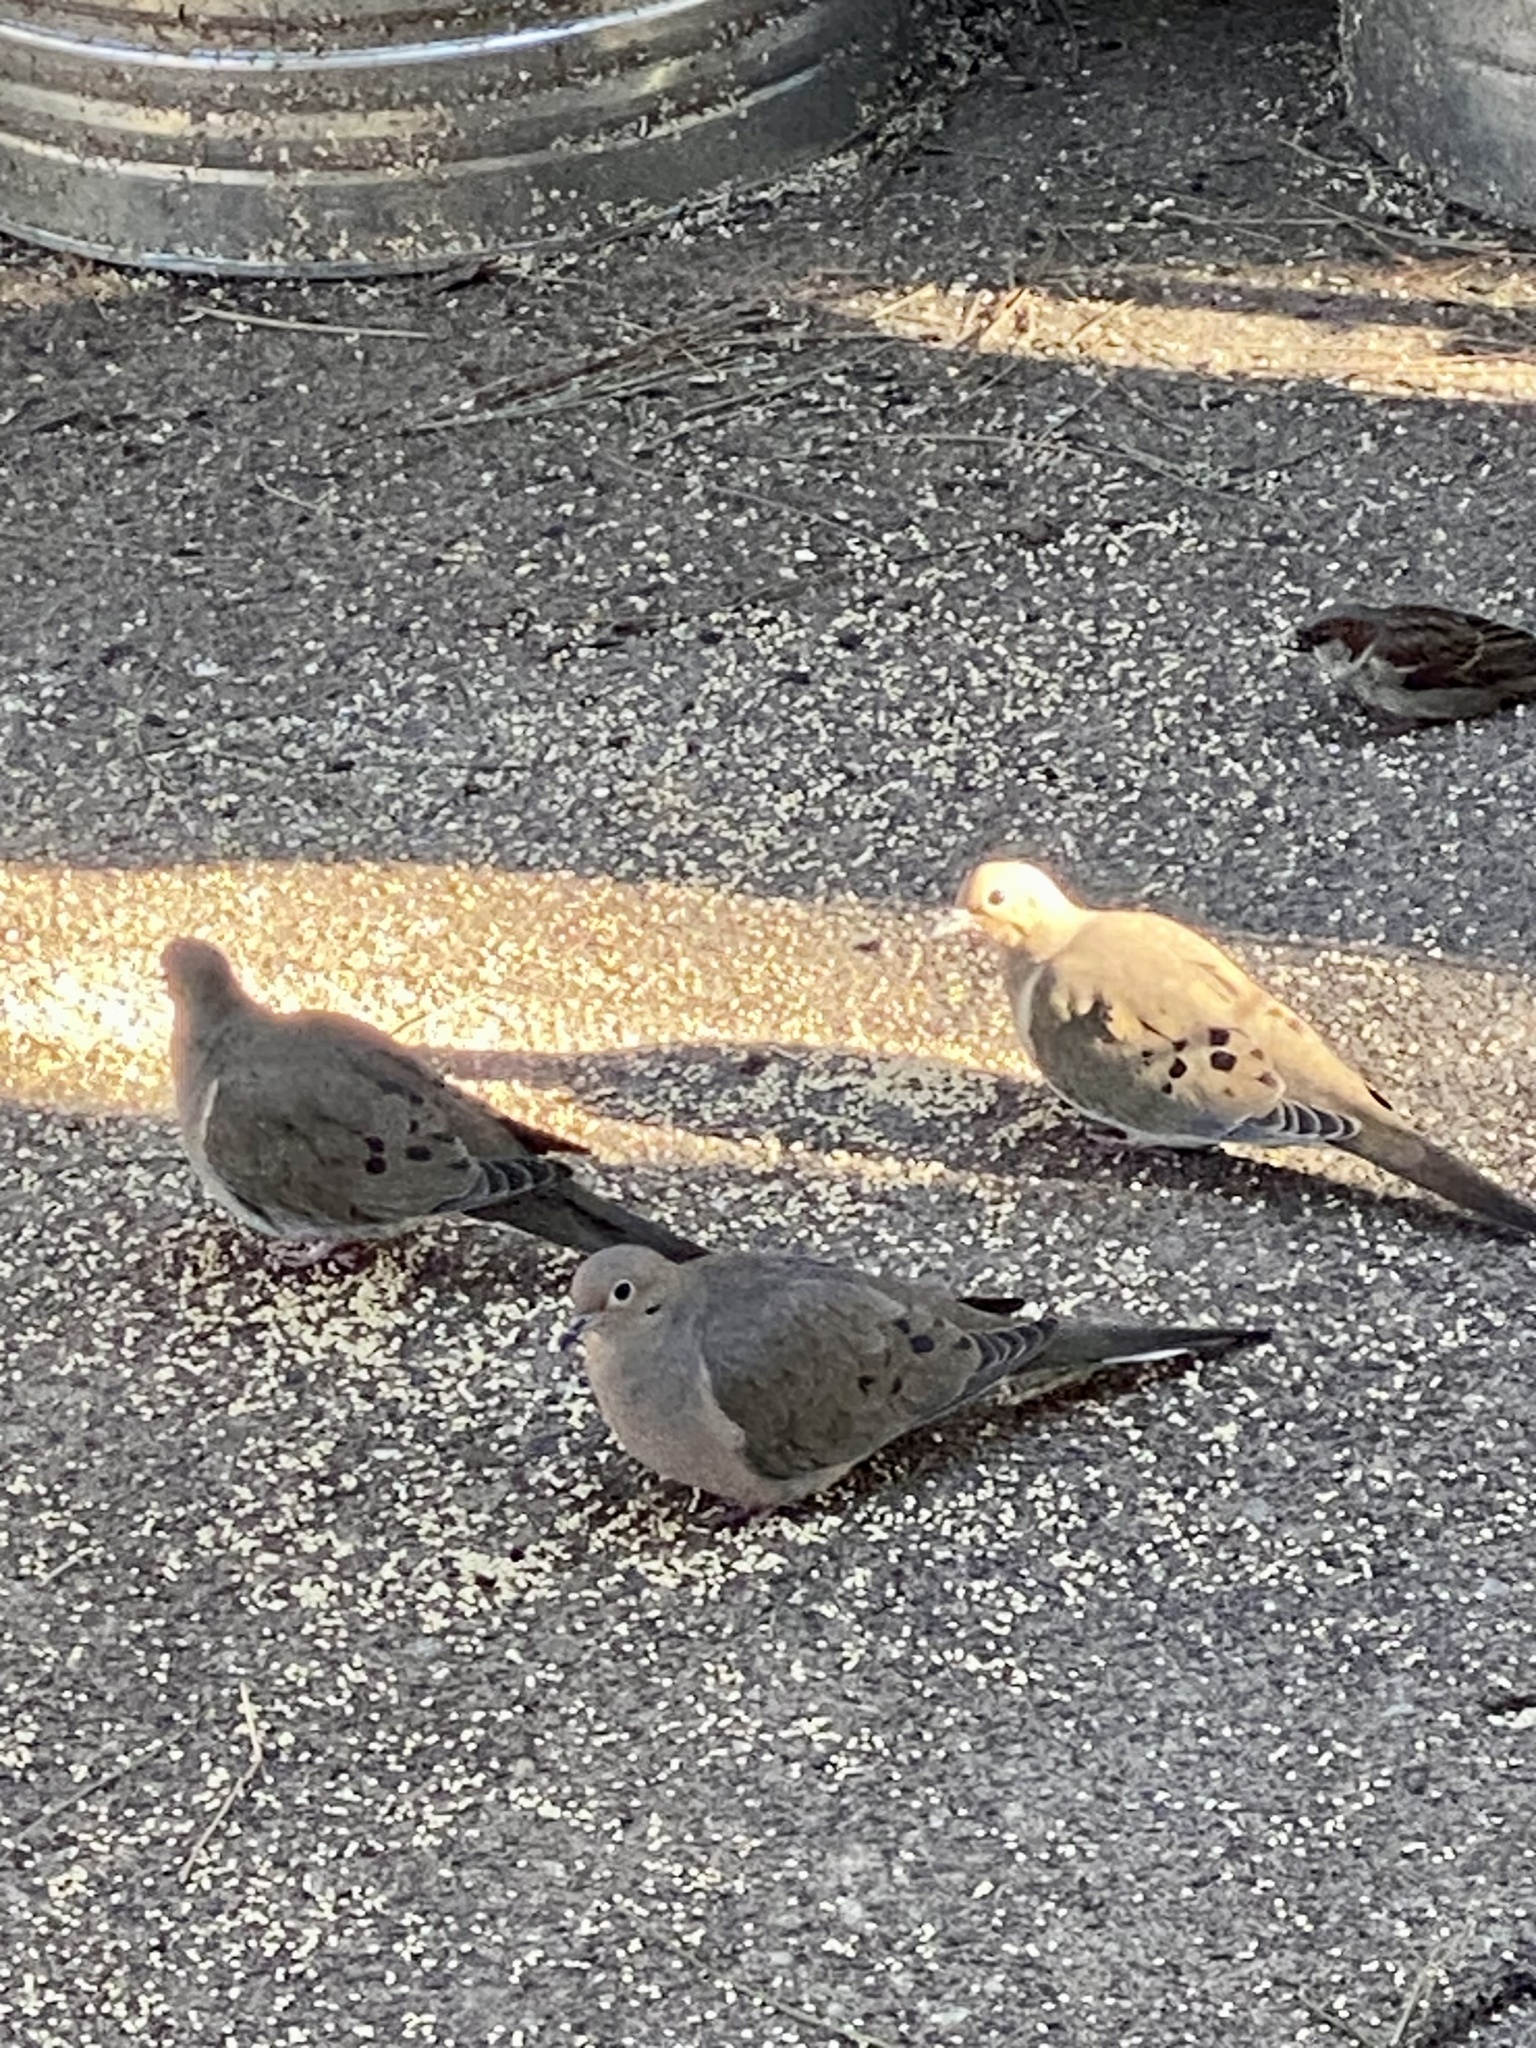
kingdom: Animalia
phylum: Chordata
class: Aves
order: Columbiformes
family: Columbidae
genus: Zenaida
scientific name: Zenaida macroura
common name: Mourning dove
